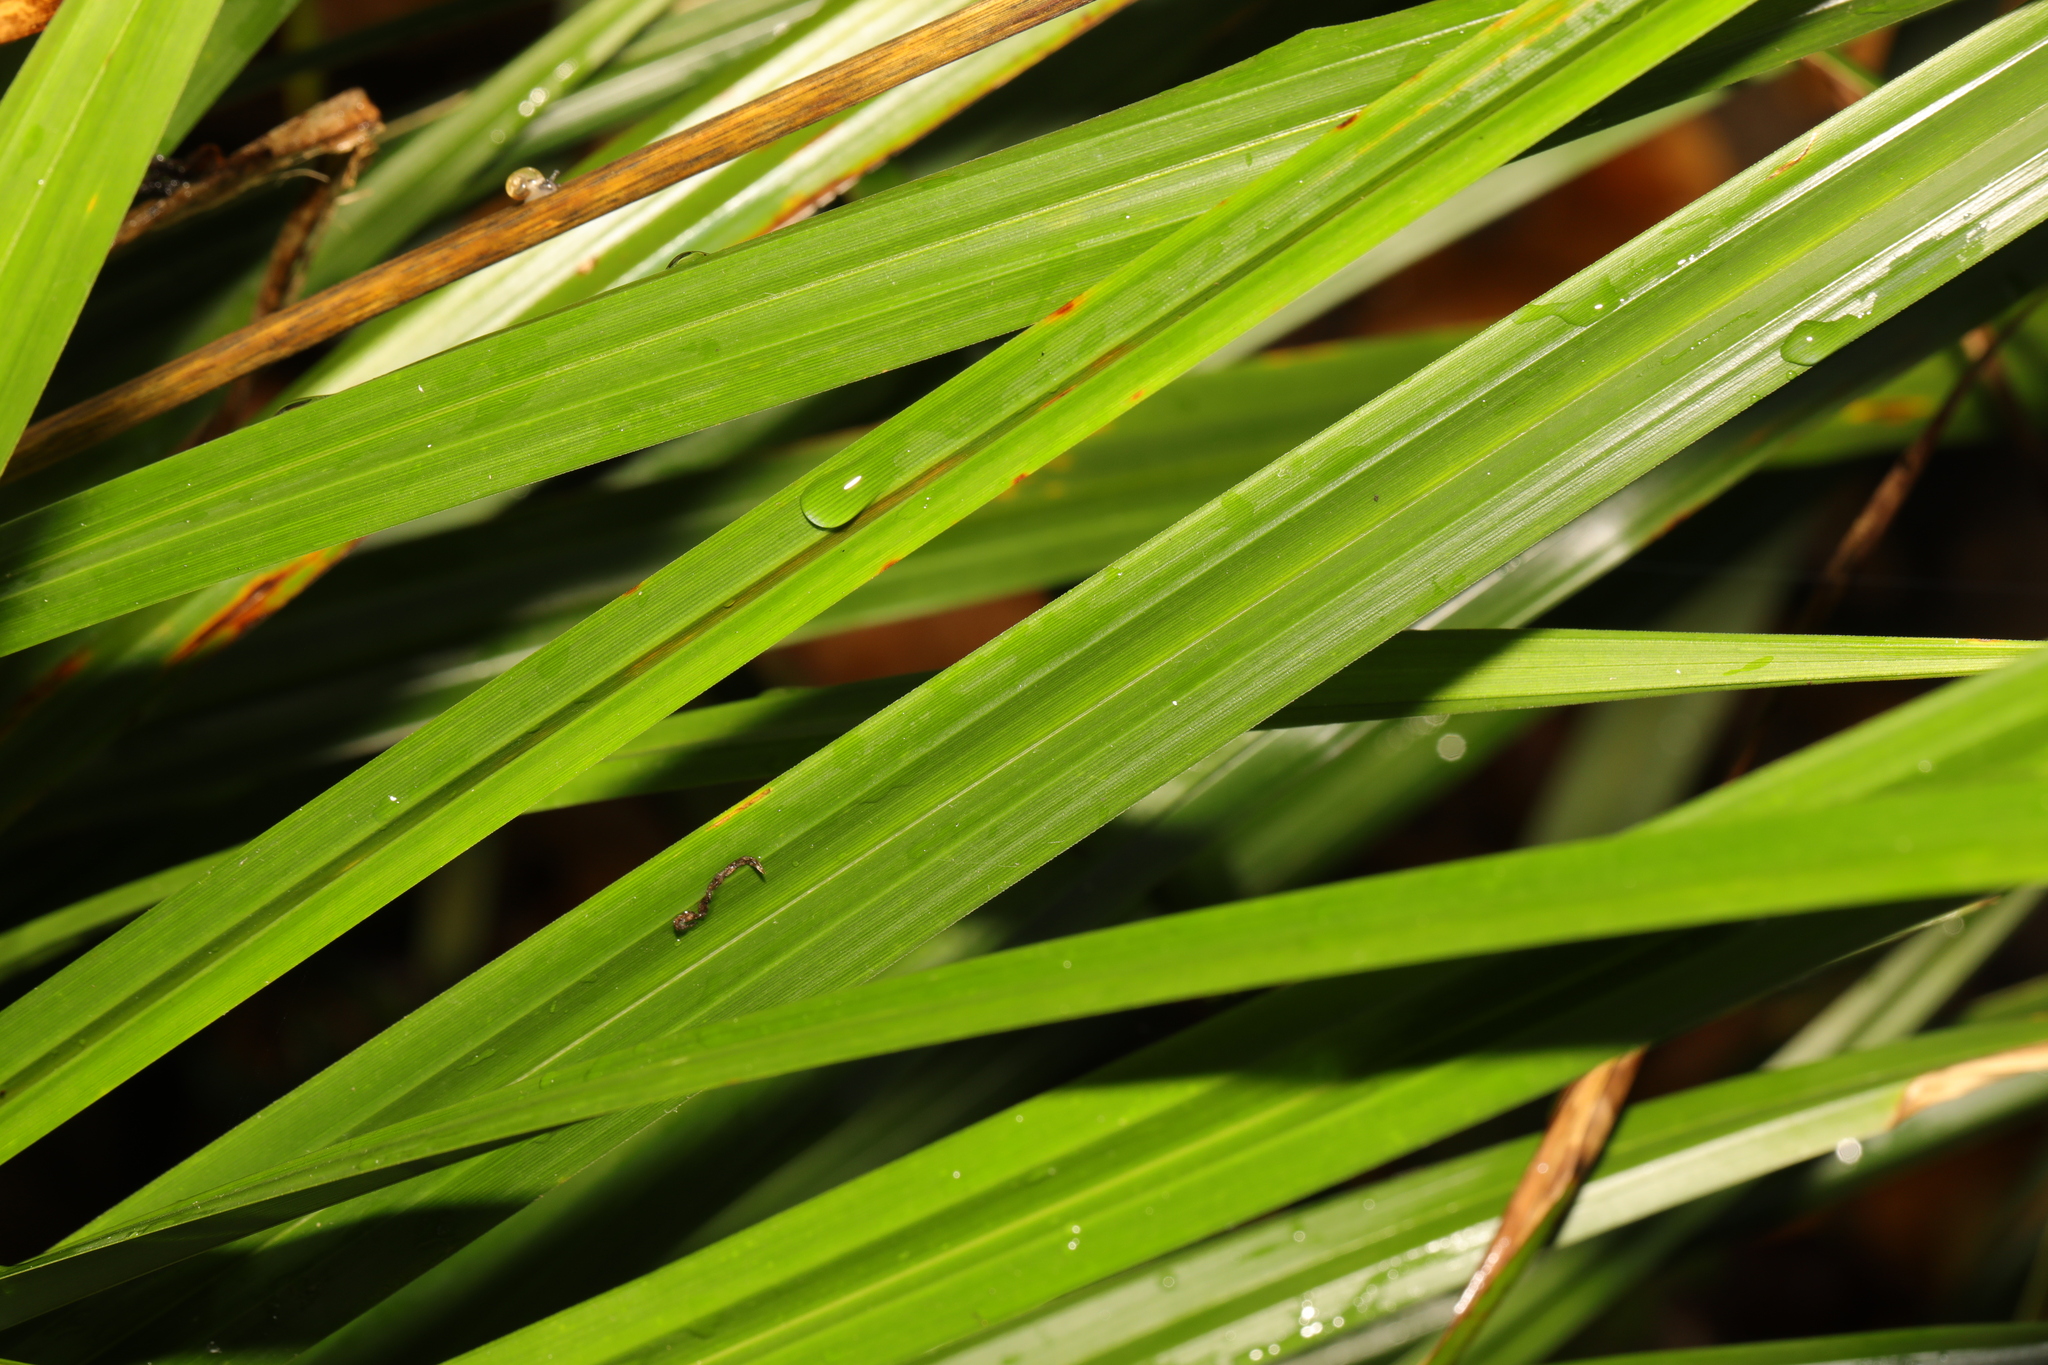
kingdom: Plantae
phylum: Tracheophyta
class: Liliopsida
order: Poales
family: Cyperaceae
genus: Carex
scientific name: Carex pendula
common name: Pendulous sedge
